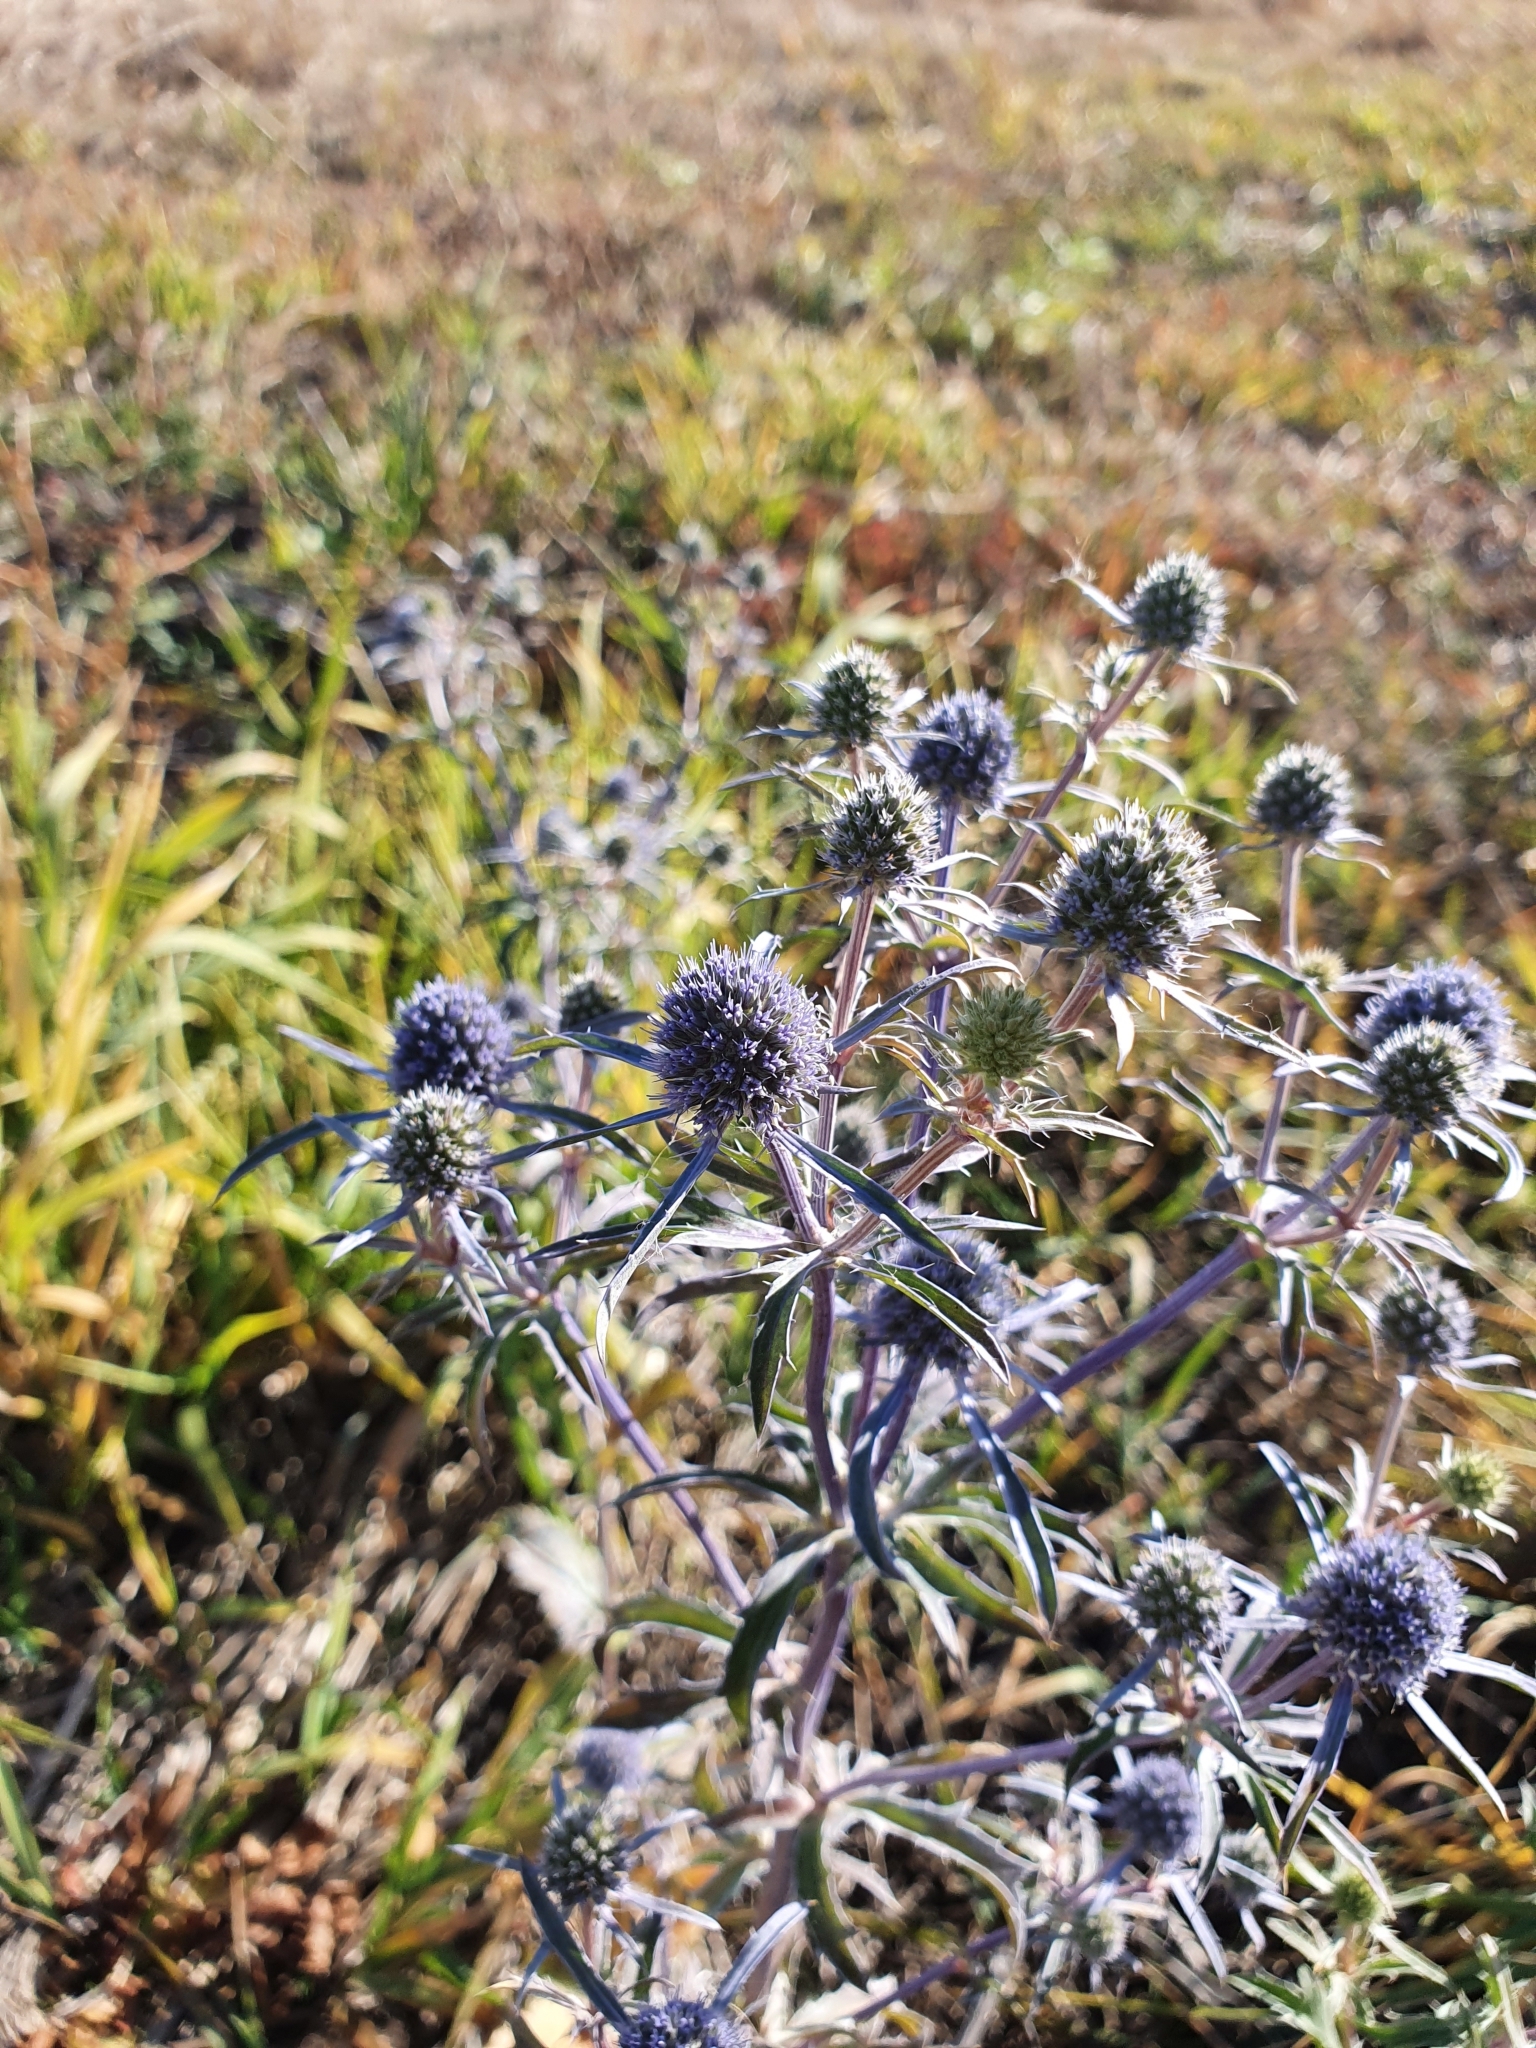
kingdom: Plantae
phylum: Tracheophyta
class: Magnoliopsida
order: Apiales
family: Apiaceae
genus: Eryngium
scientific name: Eryngium planum
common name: Blue eryngo
